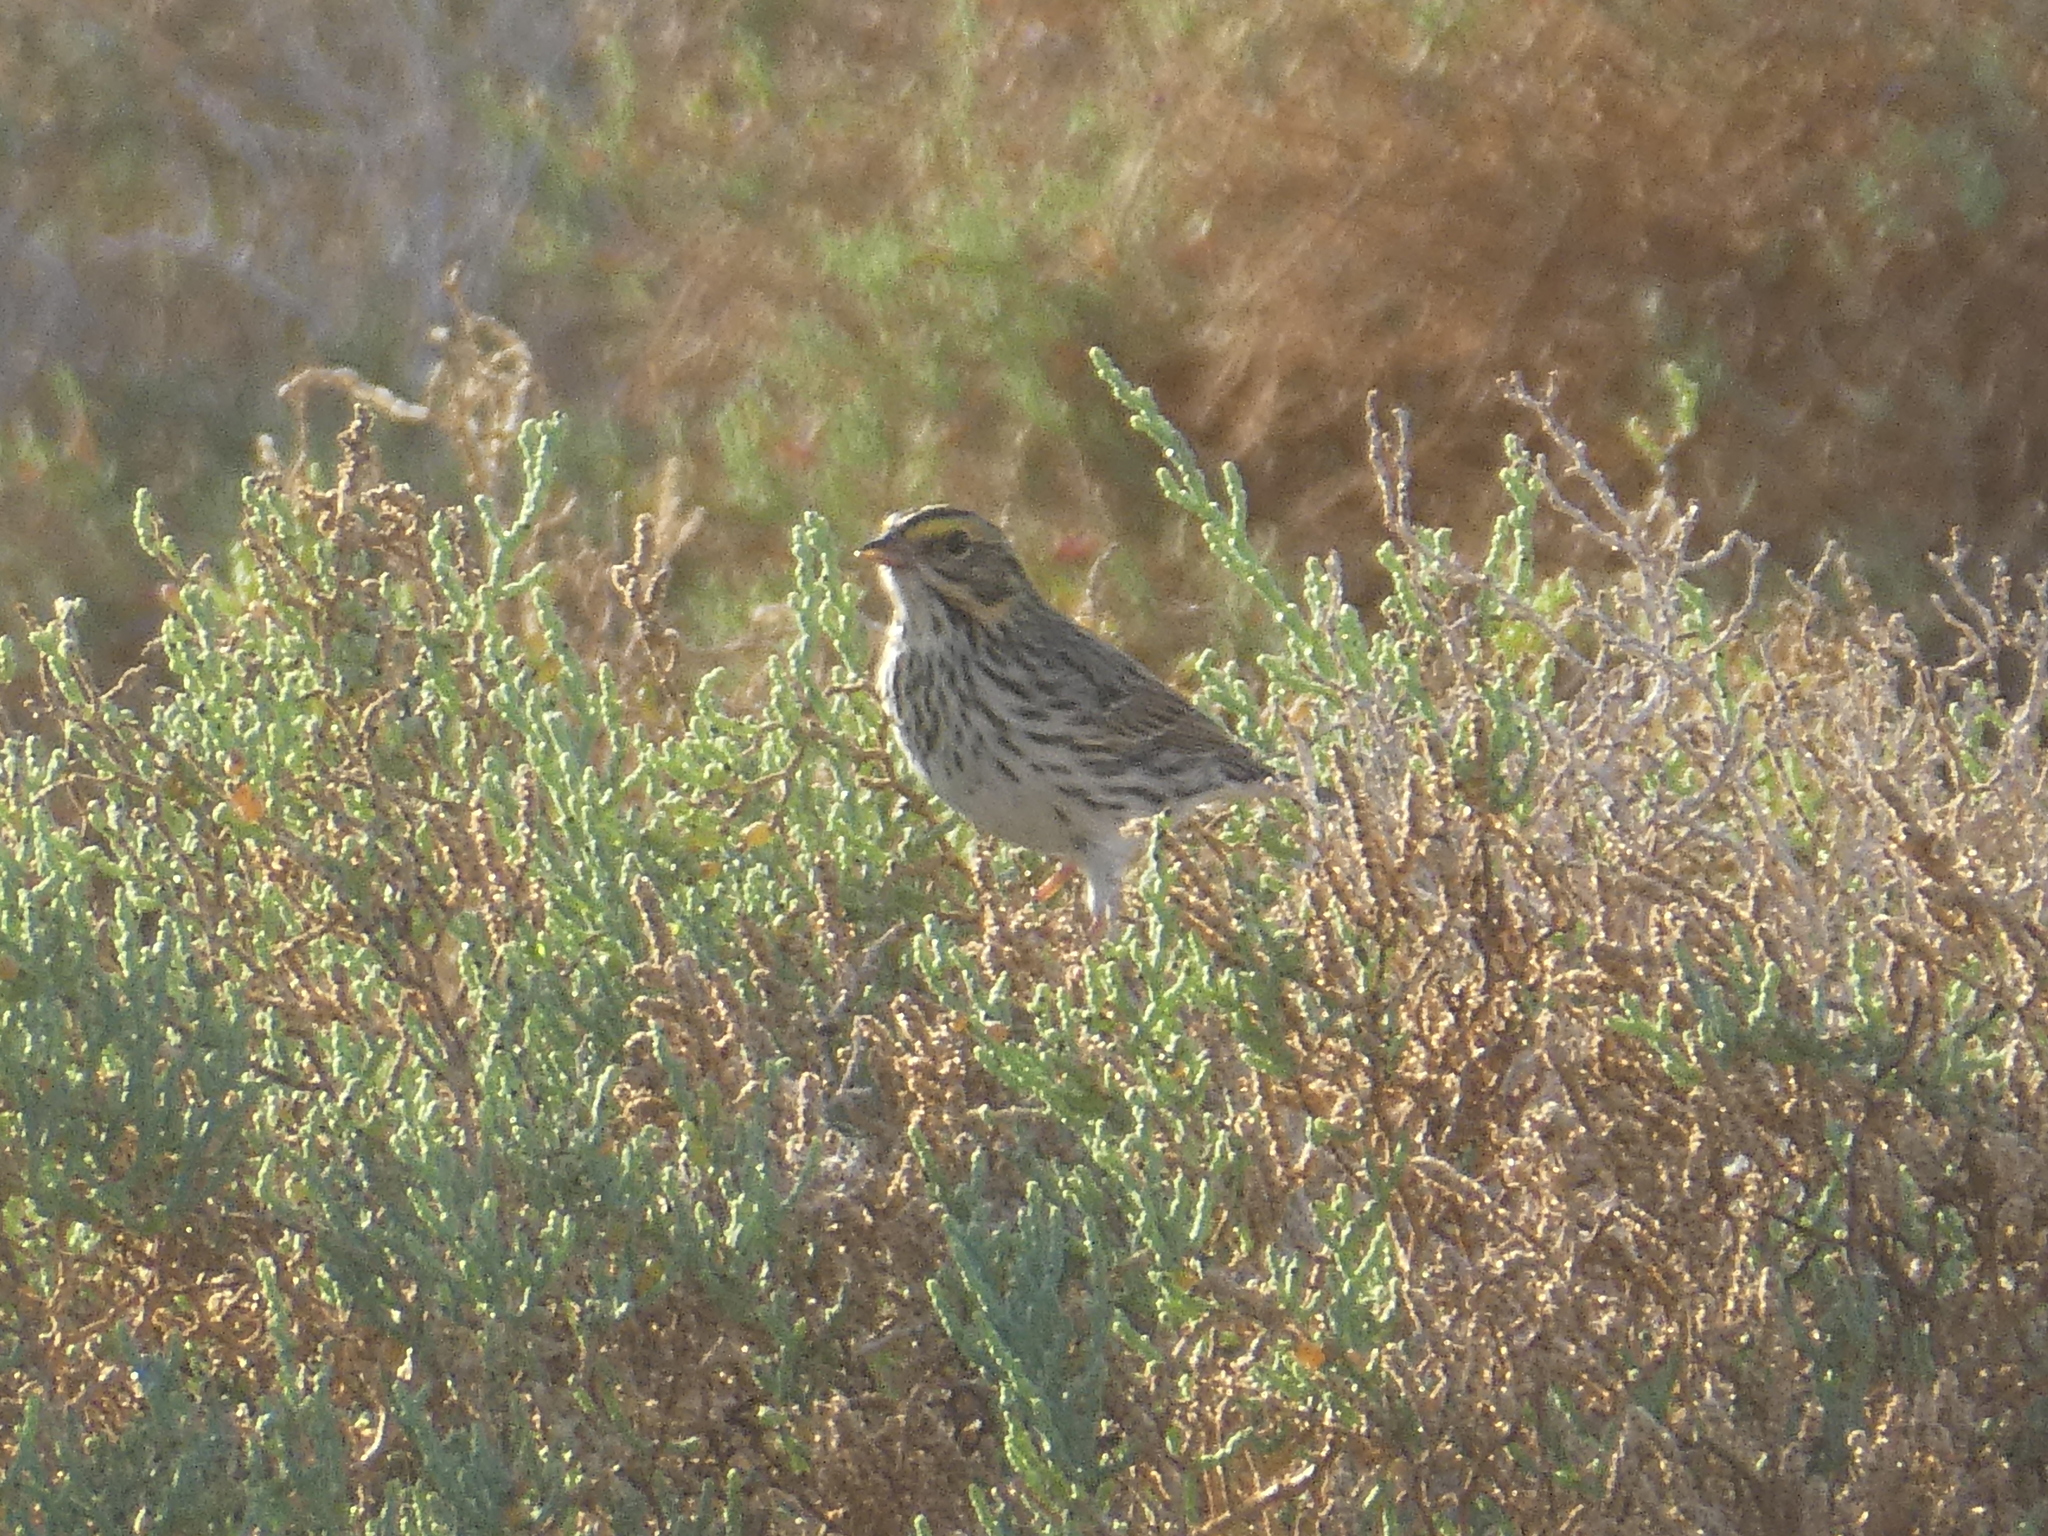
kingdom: Animalia
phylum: Chordata
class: Aves
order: Passeriformes
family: Passerellidae
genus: Passerculus
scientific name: Passerculus sandwichensis
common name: Savannah sparrow
